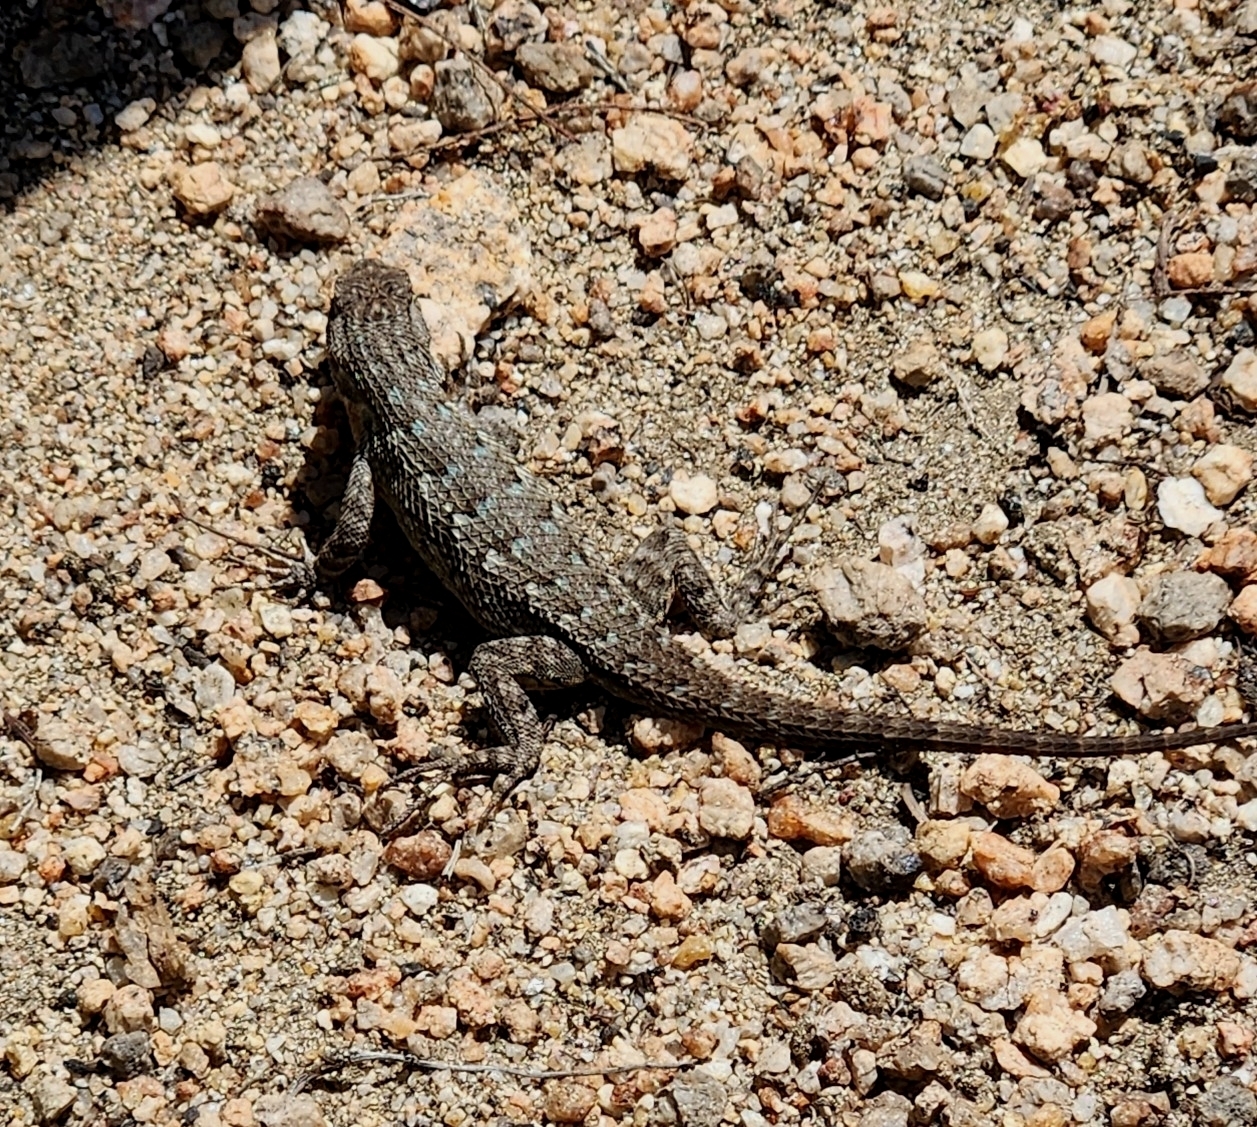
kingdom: Animalia
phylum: Chordata
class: Squamata
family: Phrynosomatidae
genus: Sceloporus
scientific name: Sceloporus occidentalis
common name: Western fence lizard
